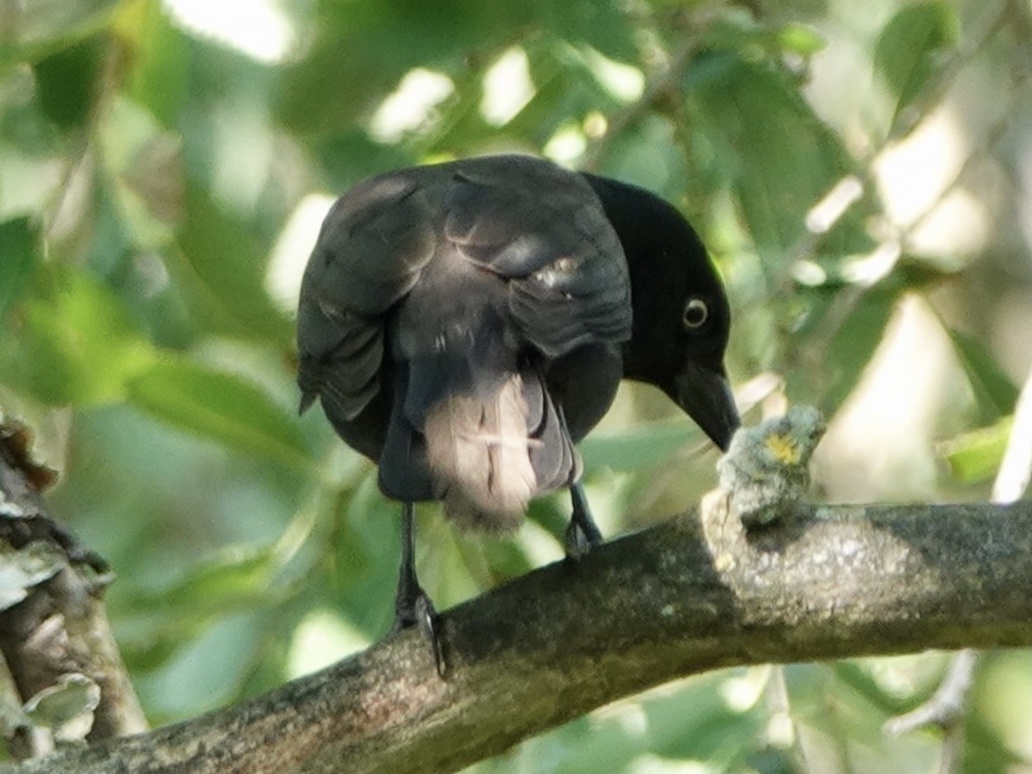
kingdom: Animalia
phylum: Chordata
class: Aves
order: Passeriformes
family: Icteridae
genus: Quiscalus
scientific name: Quiscalus quiscula
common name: Common grackle
